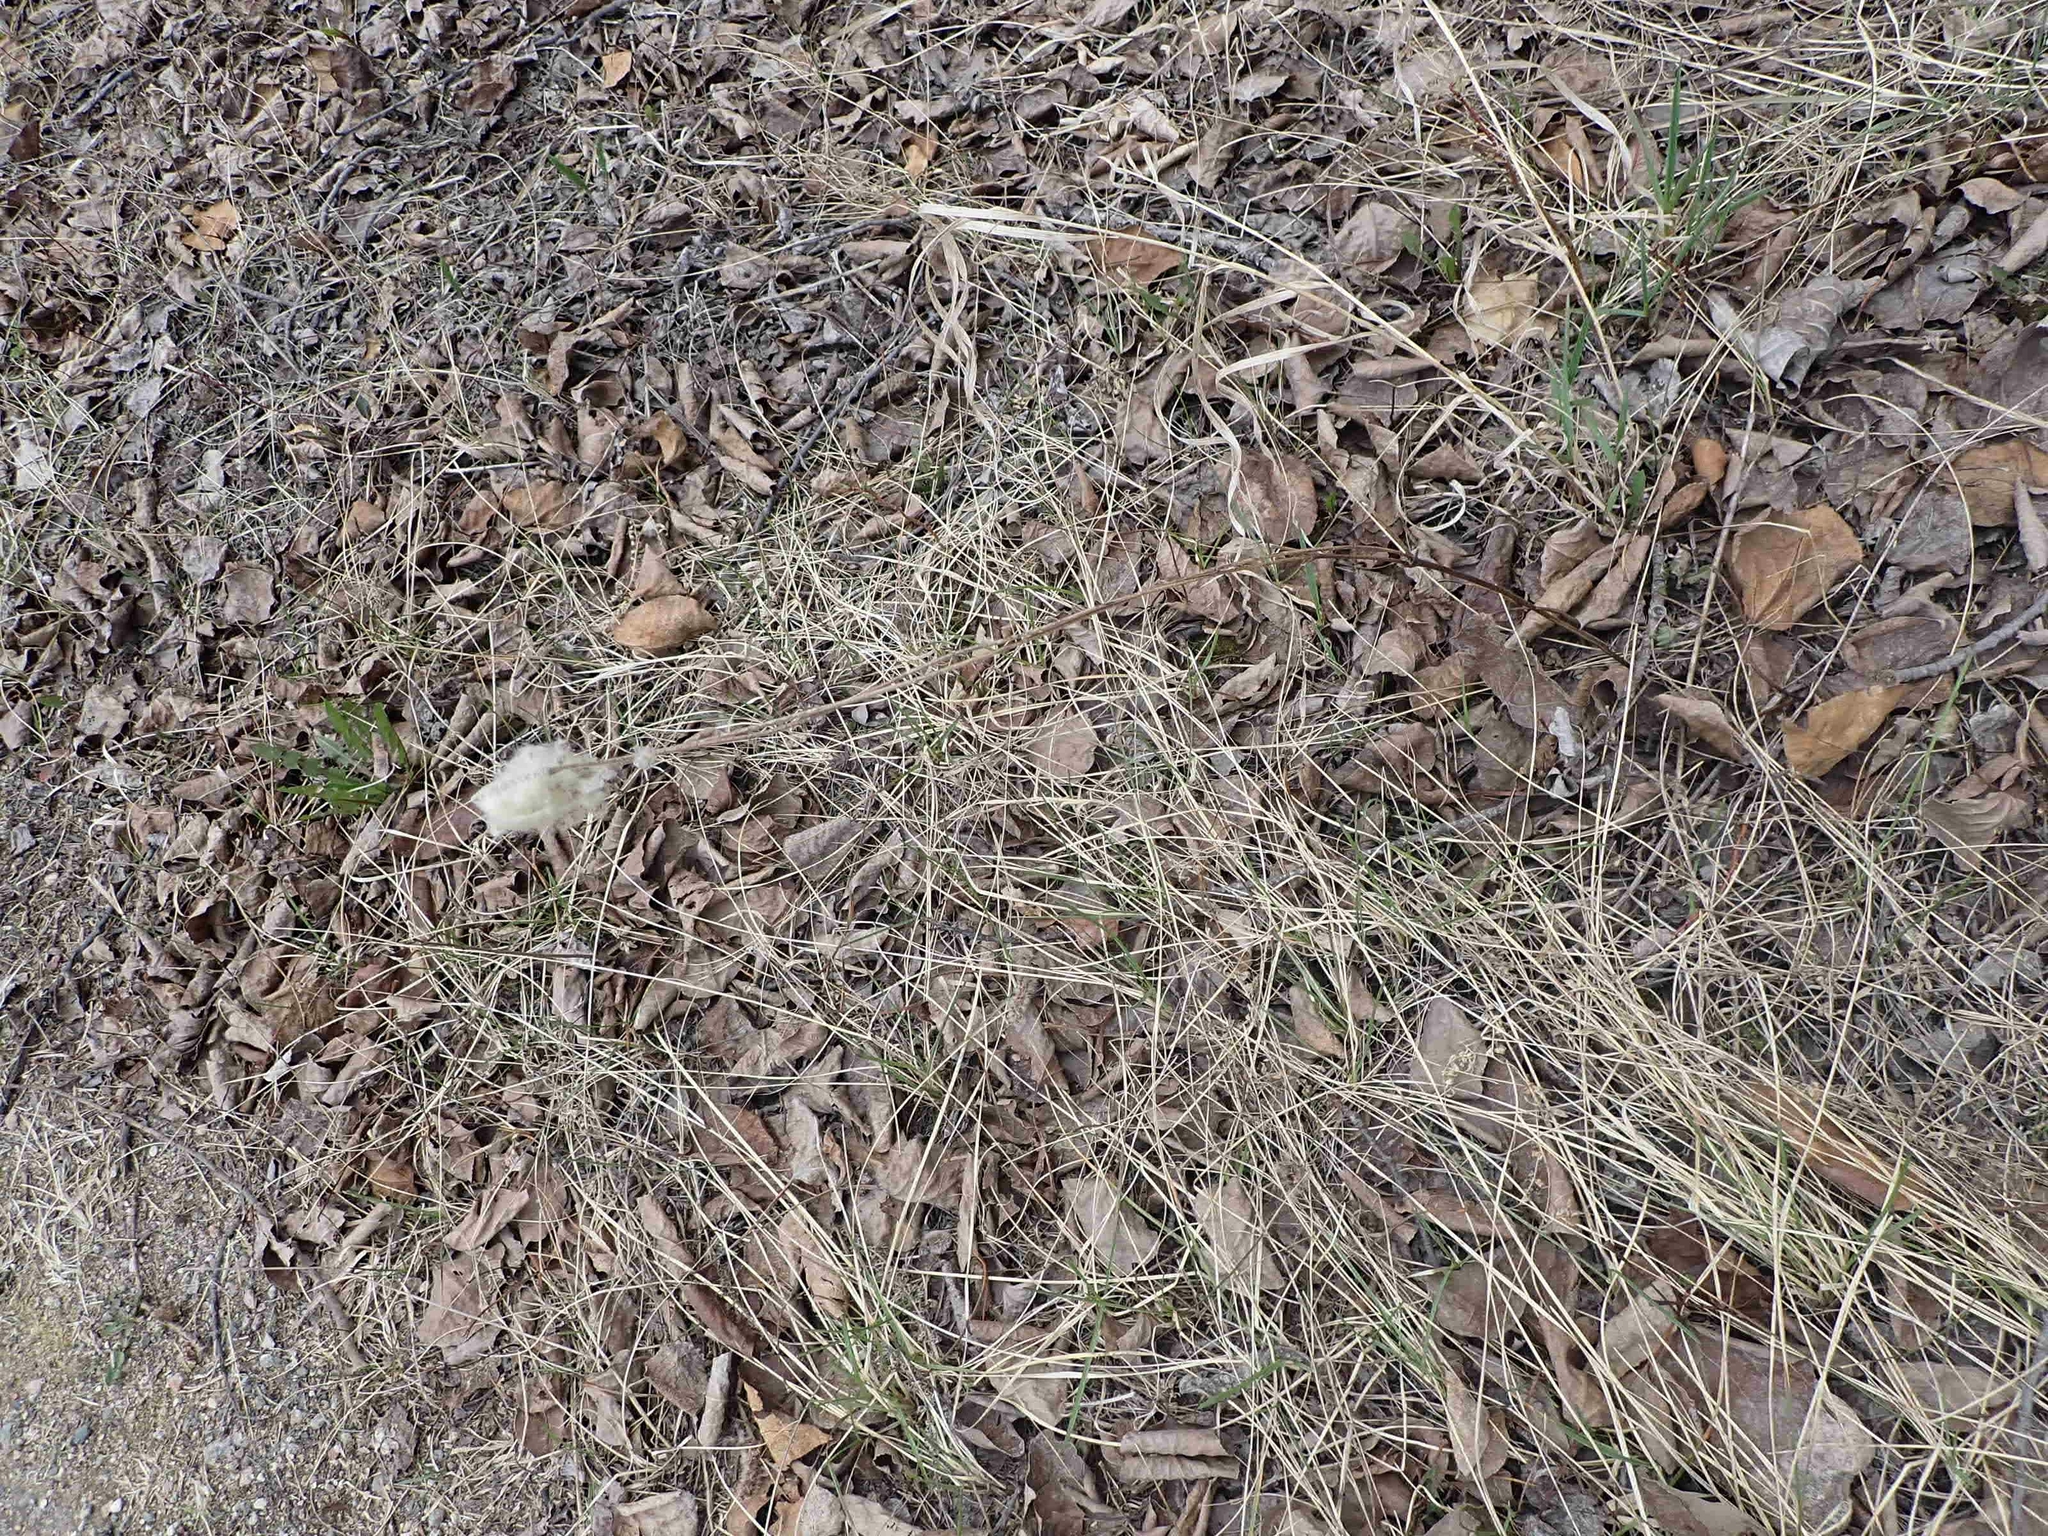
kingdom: Plantae
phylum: Tracheophyta
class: Magnoliopsida
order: Ranunculales
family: Ranunculaceae
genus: Anemone
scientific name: Anemone virginiana
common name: Tall anemone
